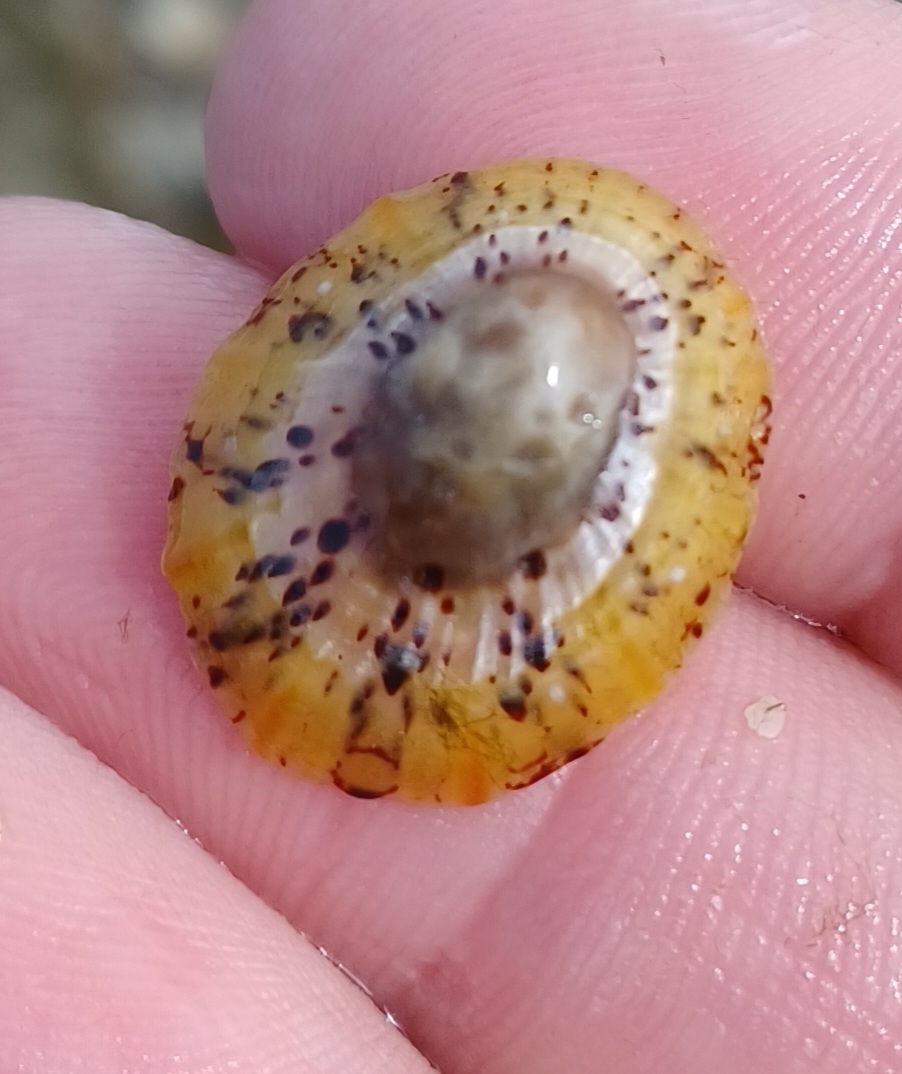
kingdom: Animalia
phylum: Mollusca
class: Gastropoda
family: Nacellidae
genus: Cellana
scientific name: Cellana tramoserica
